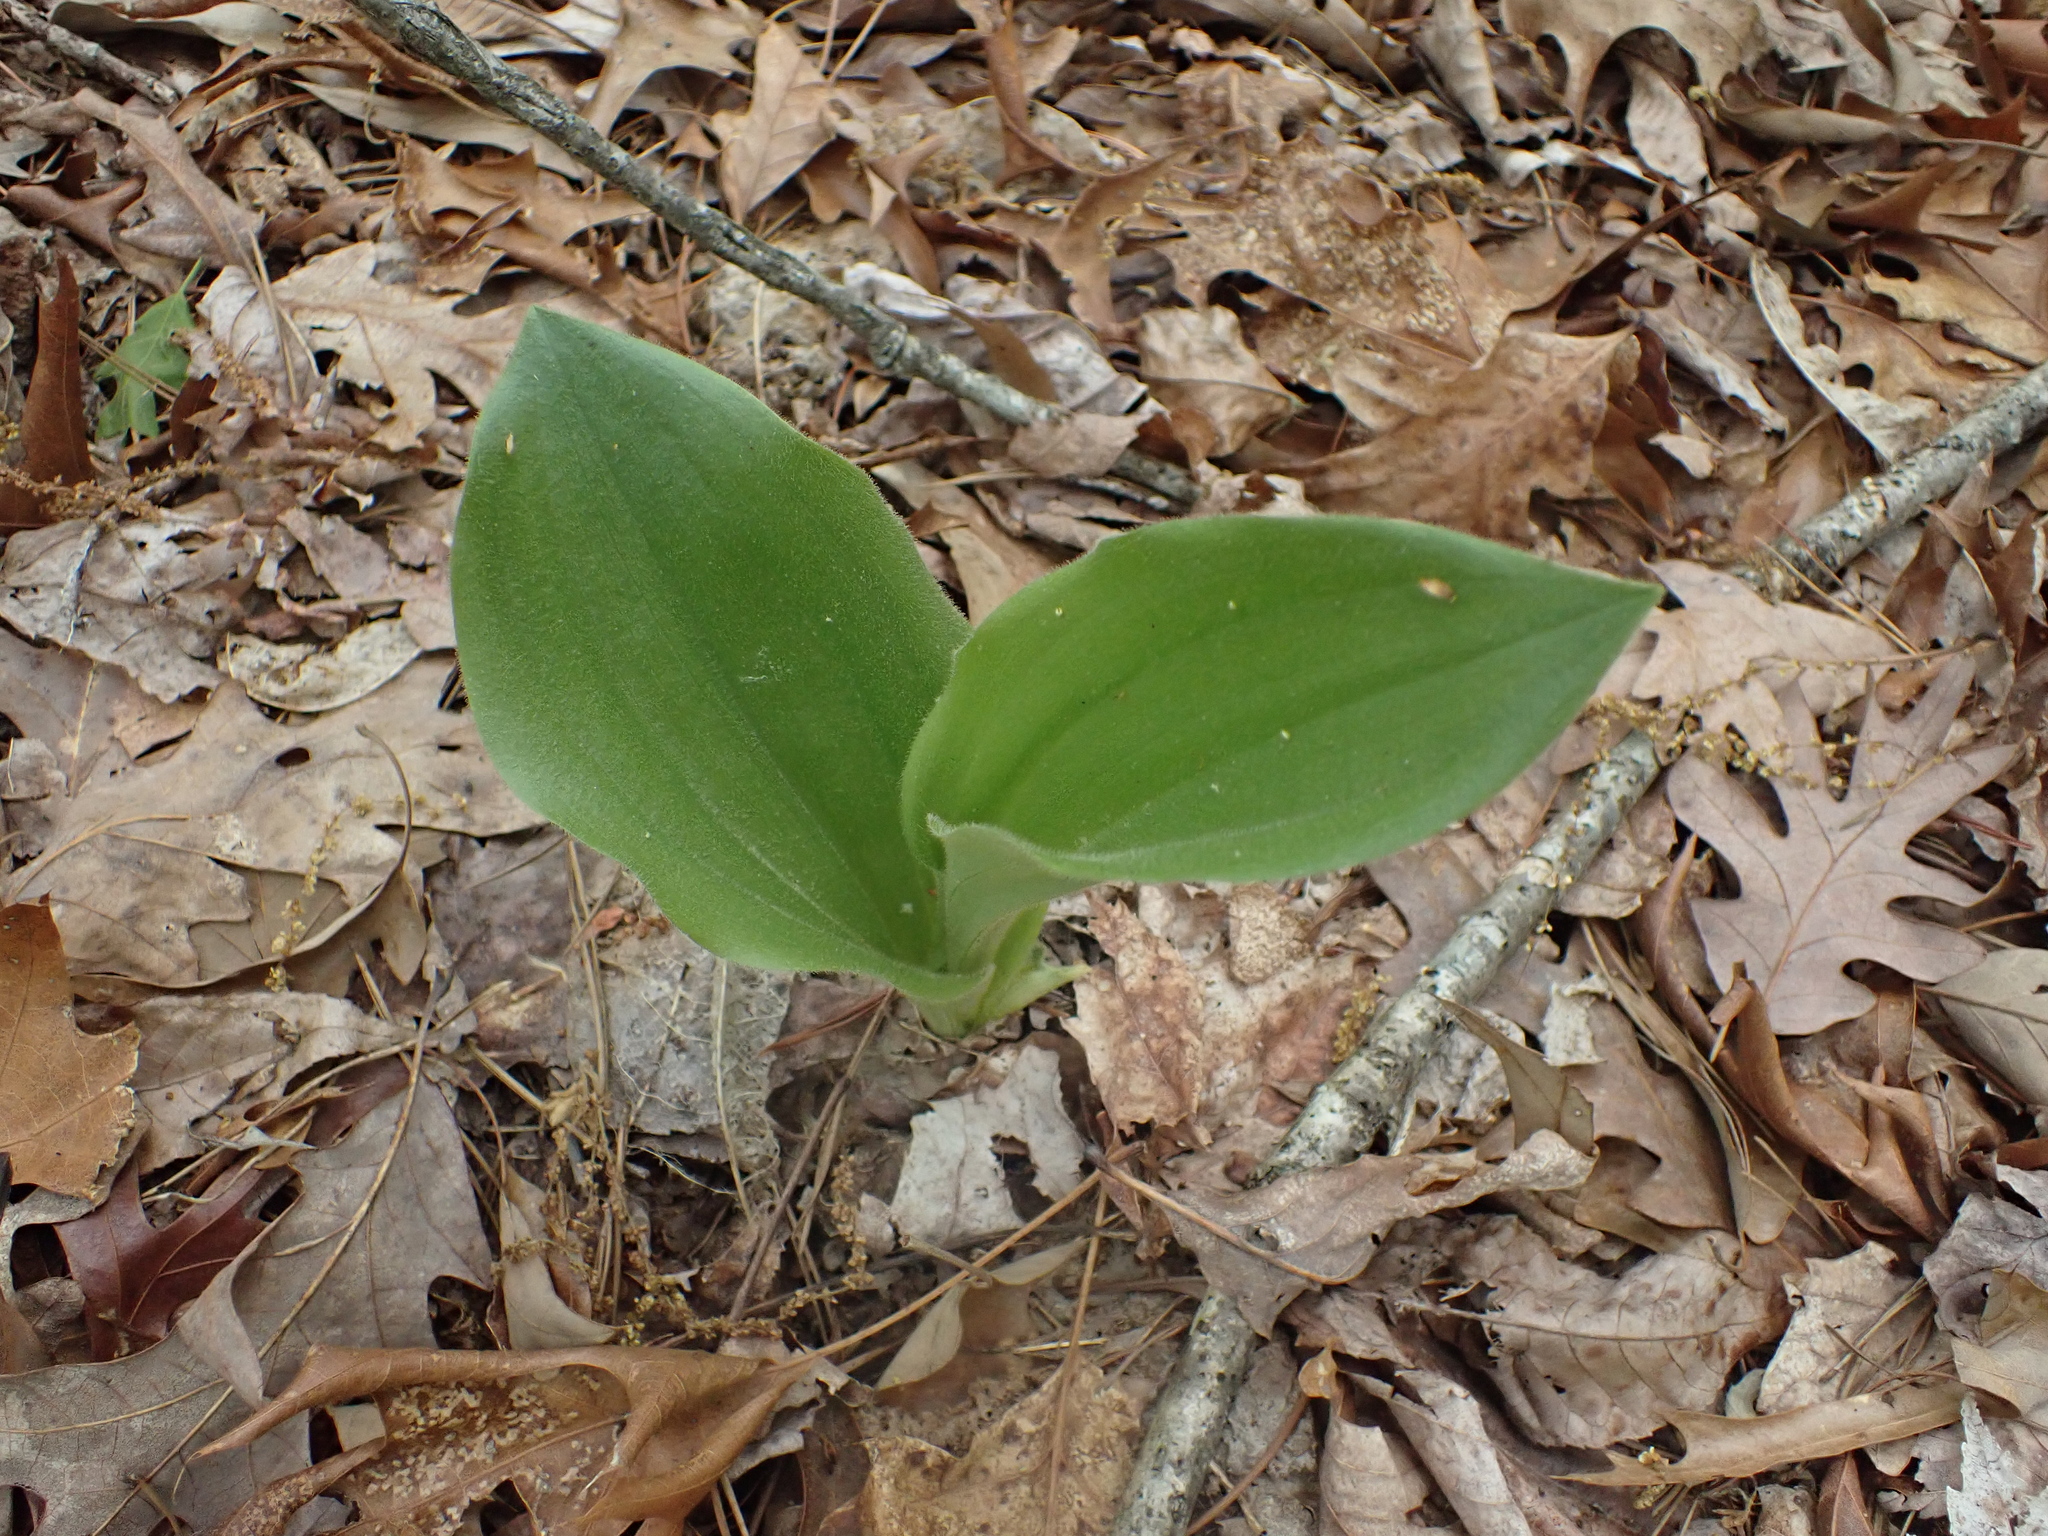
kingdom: Plantae
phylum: Tracheophyta
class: Liliopsida
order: Asparagales
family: Orchidaceae
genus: Cypripedium
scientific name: Cypripedium acaule
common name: Pink lady's-slipper
